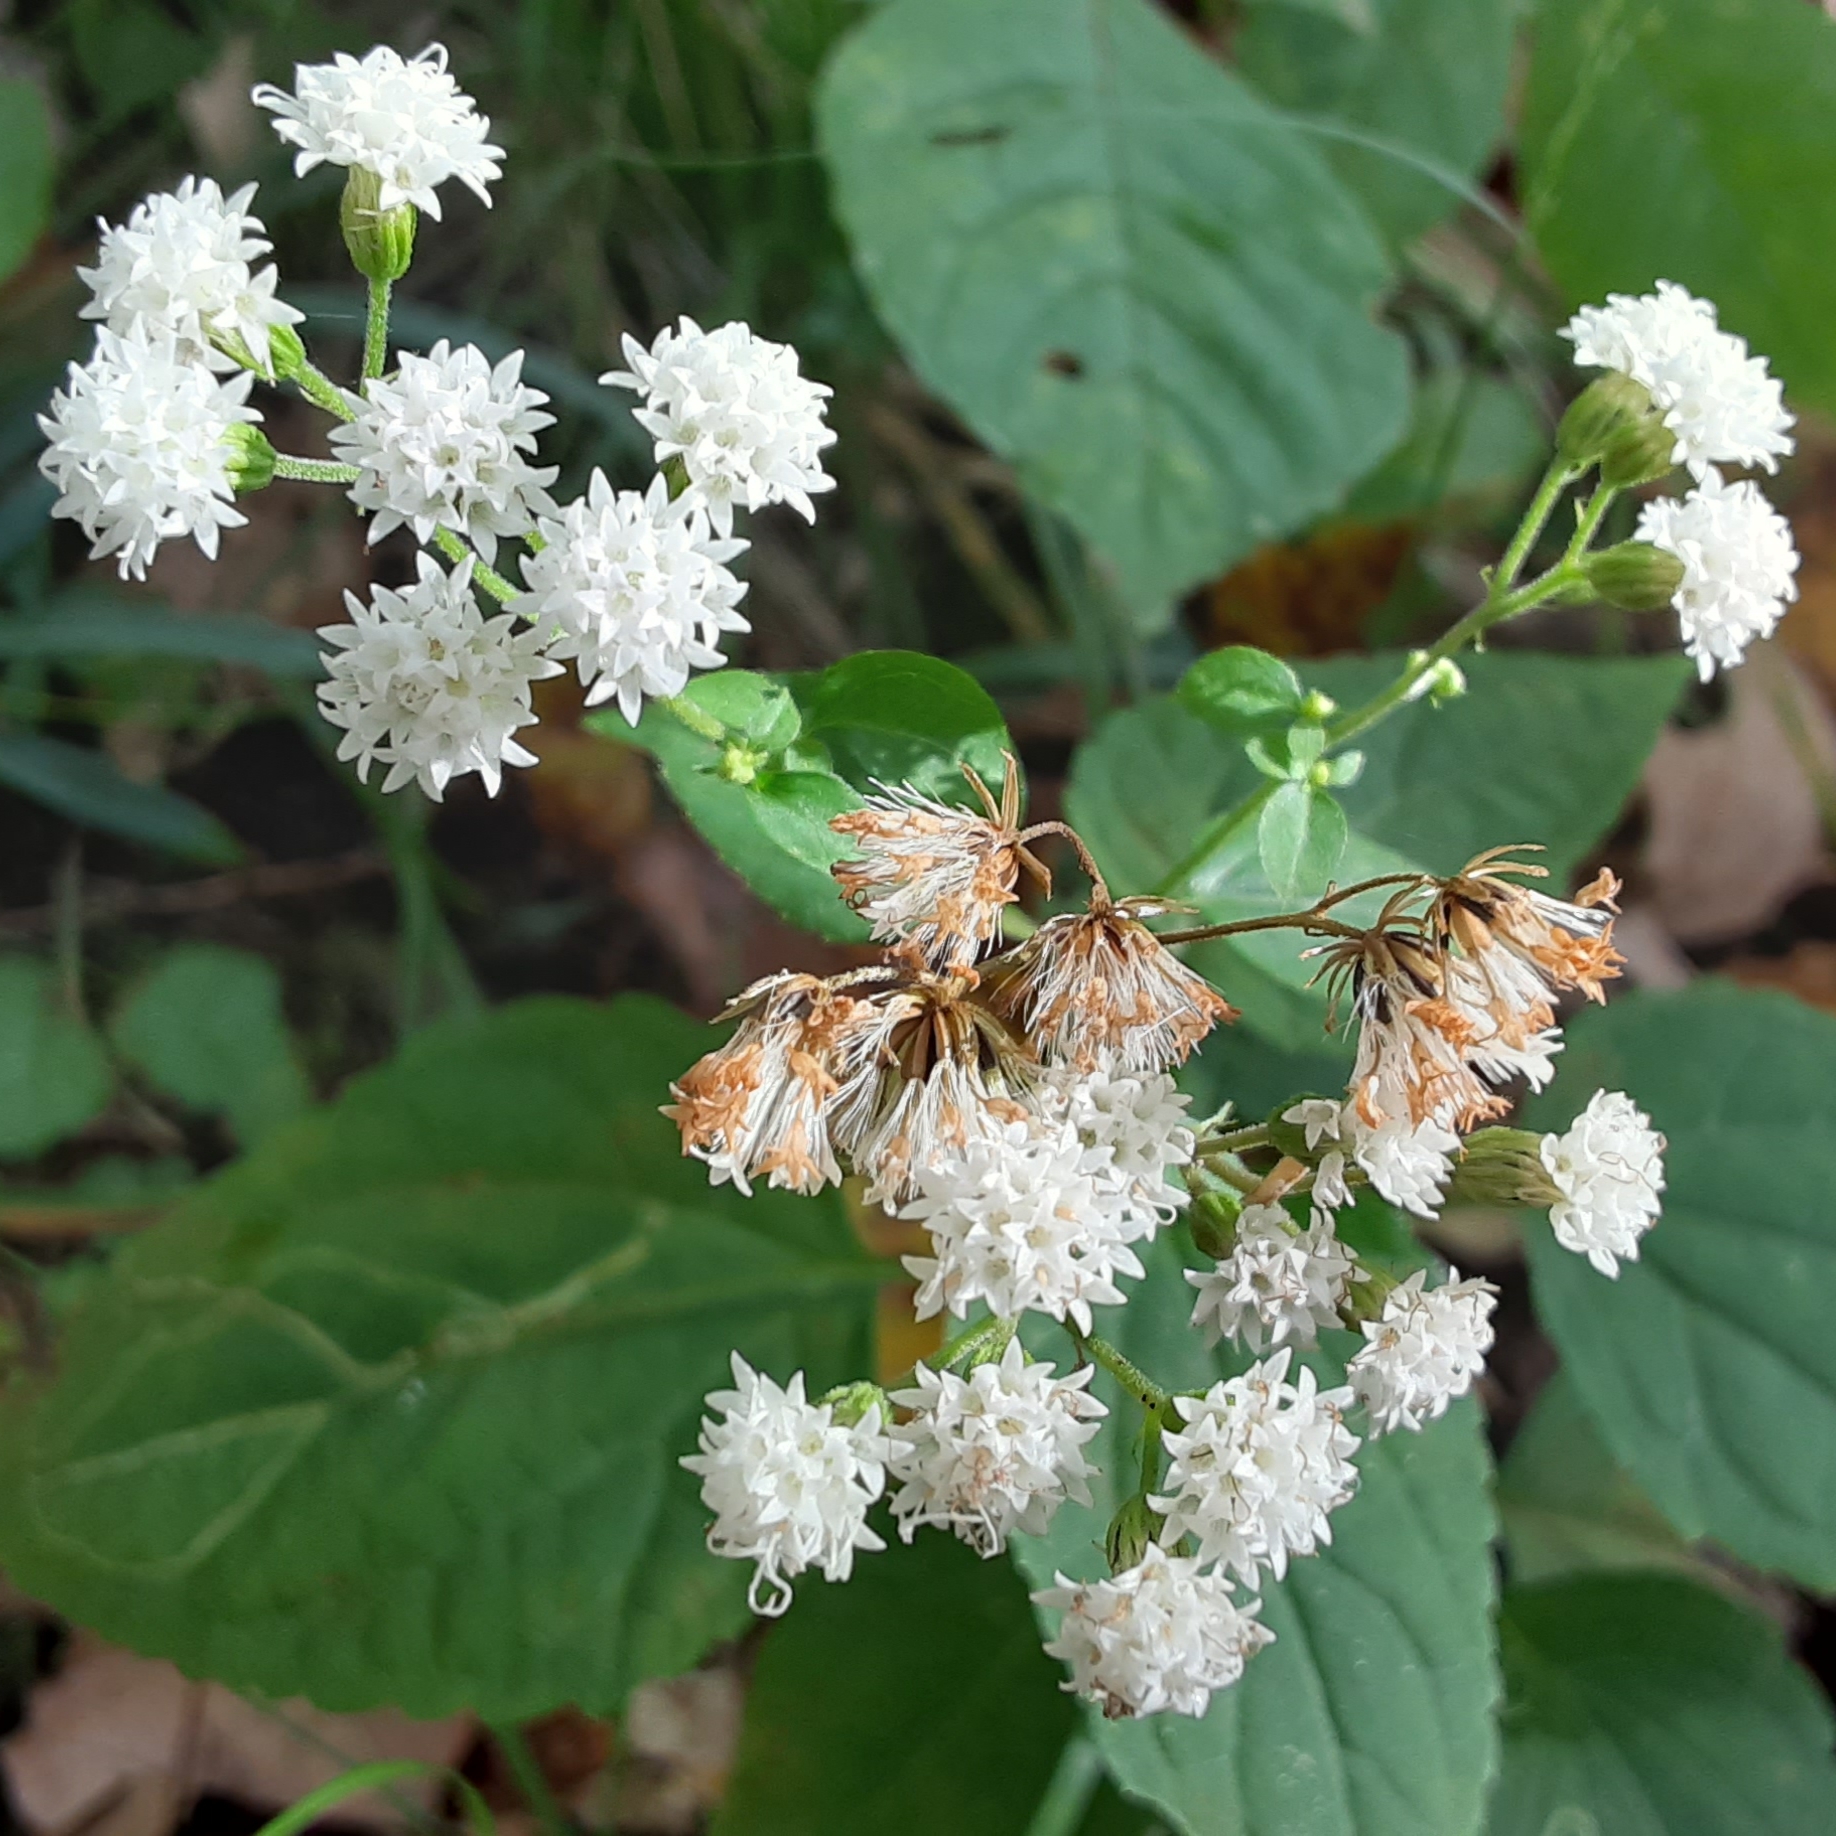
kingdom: Plantae
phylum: Tracheophyta
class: Magnoliopsida
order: Asterales
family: Asteraceae
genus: Ageratina
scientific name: Ageratina altissima
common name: White snakeroot
